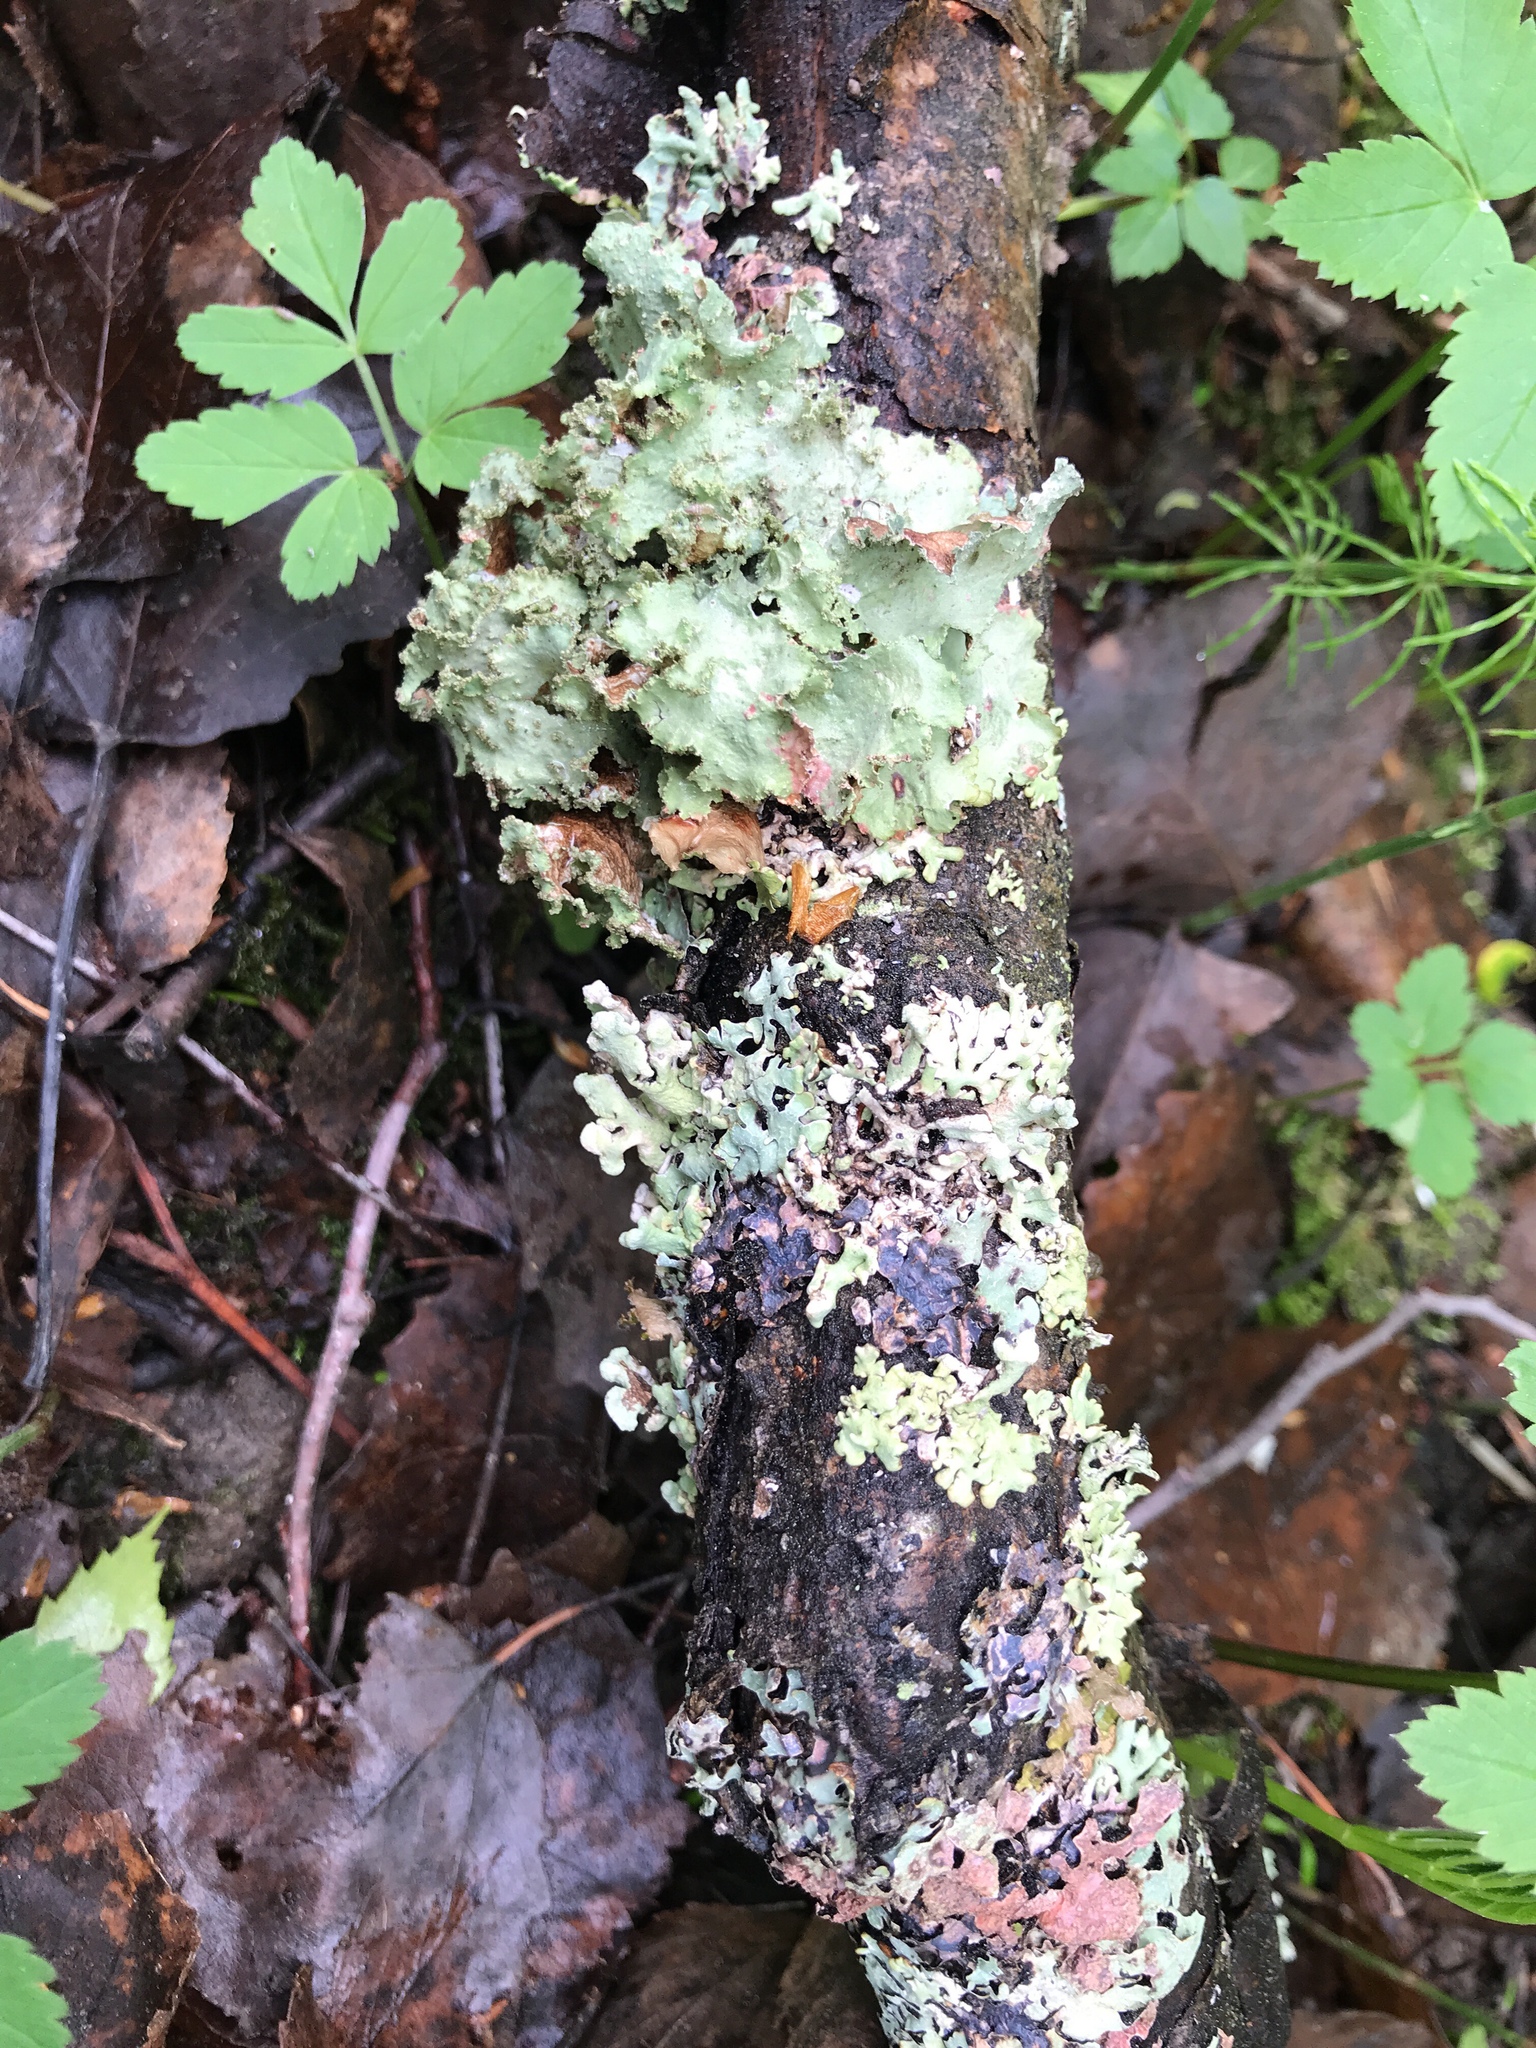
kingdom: Fungi
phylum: Ascomycota
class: Lecanoromycetes
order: Lecanorales
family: Parmeliaceae
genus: Platismatia
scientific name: Platismatia glauca
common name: Varied rag lichen
